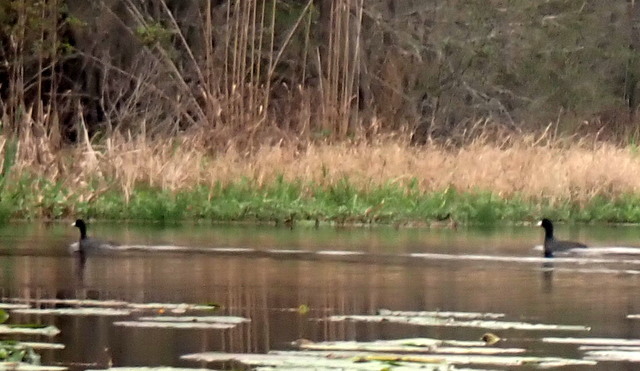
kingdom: Animalia
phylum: Chordata
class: Aves
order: Gruiformes
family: Rallidae
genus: Fulica
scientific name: Fulica americana
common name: American coot
